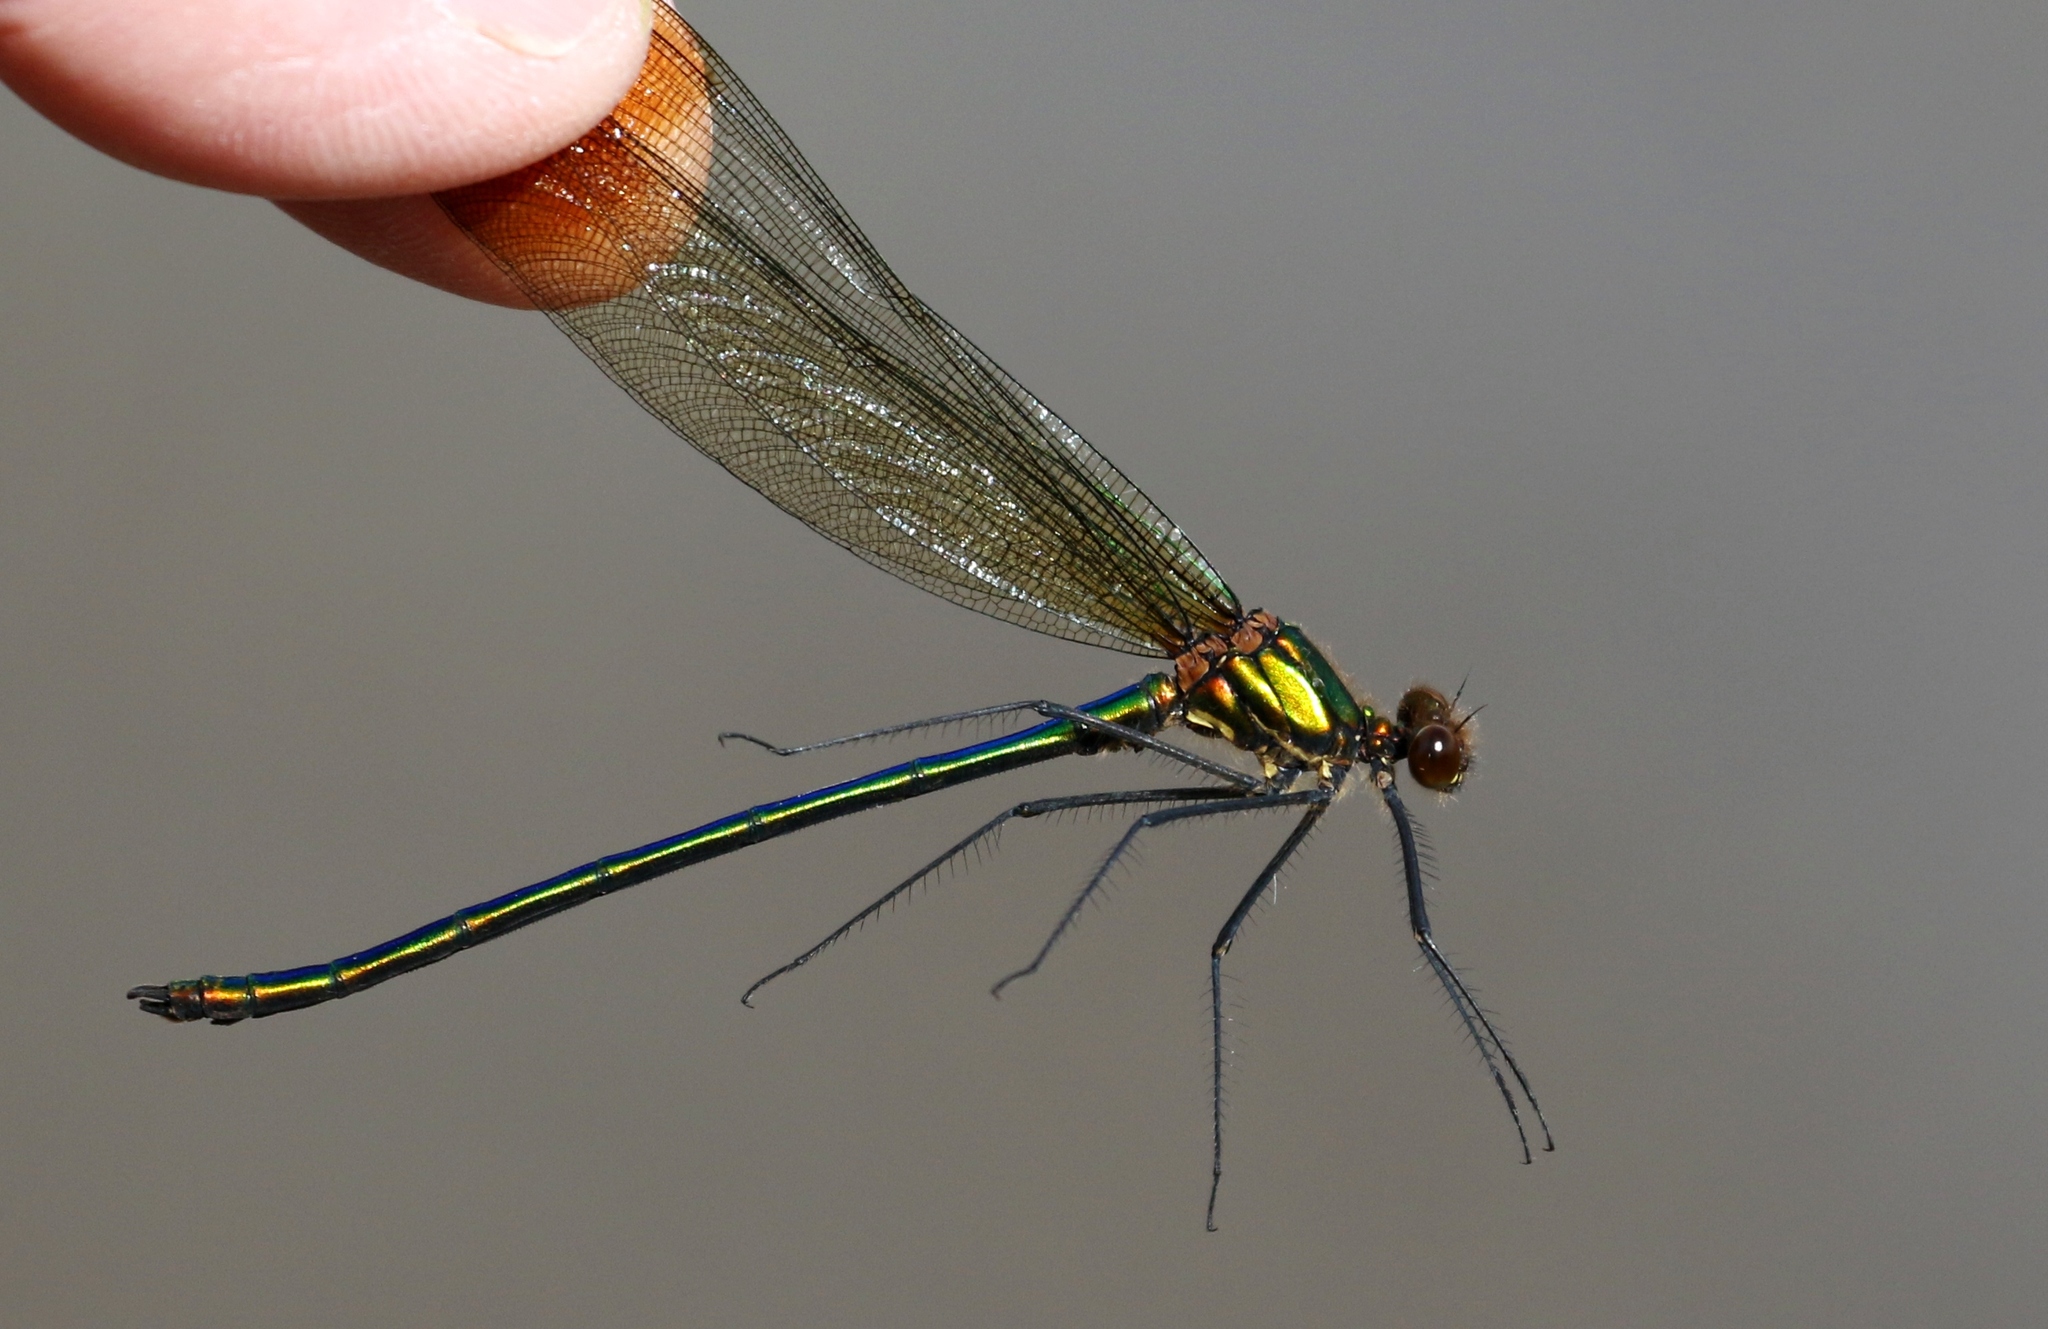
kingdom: Animalia
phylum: Arthropoda
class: Insecta
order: Odonata
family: Calopterygidae
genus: Calopteryx
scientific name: Calopteryx amata
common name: Superb jewelwing
